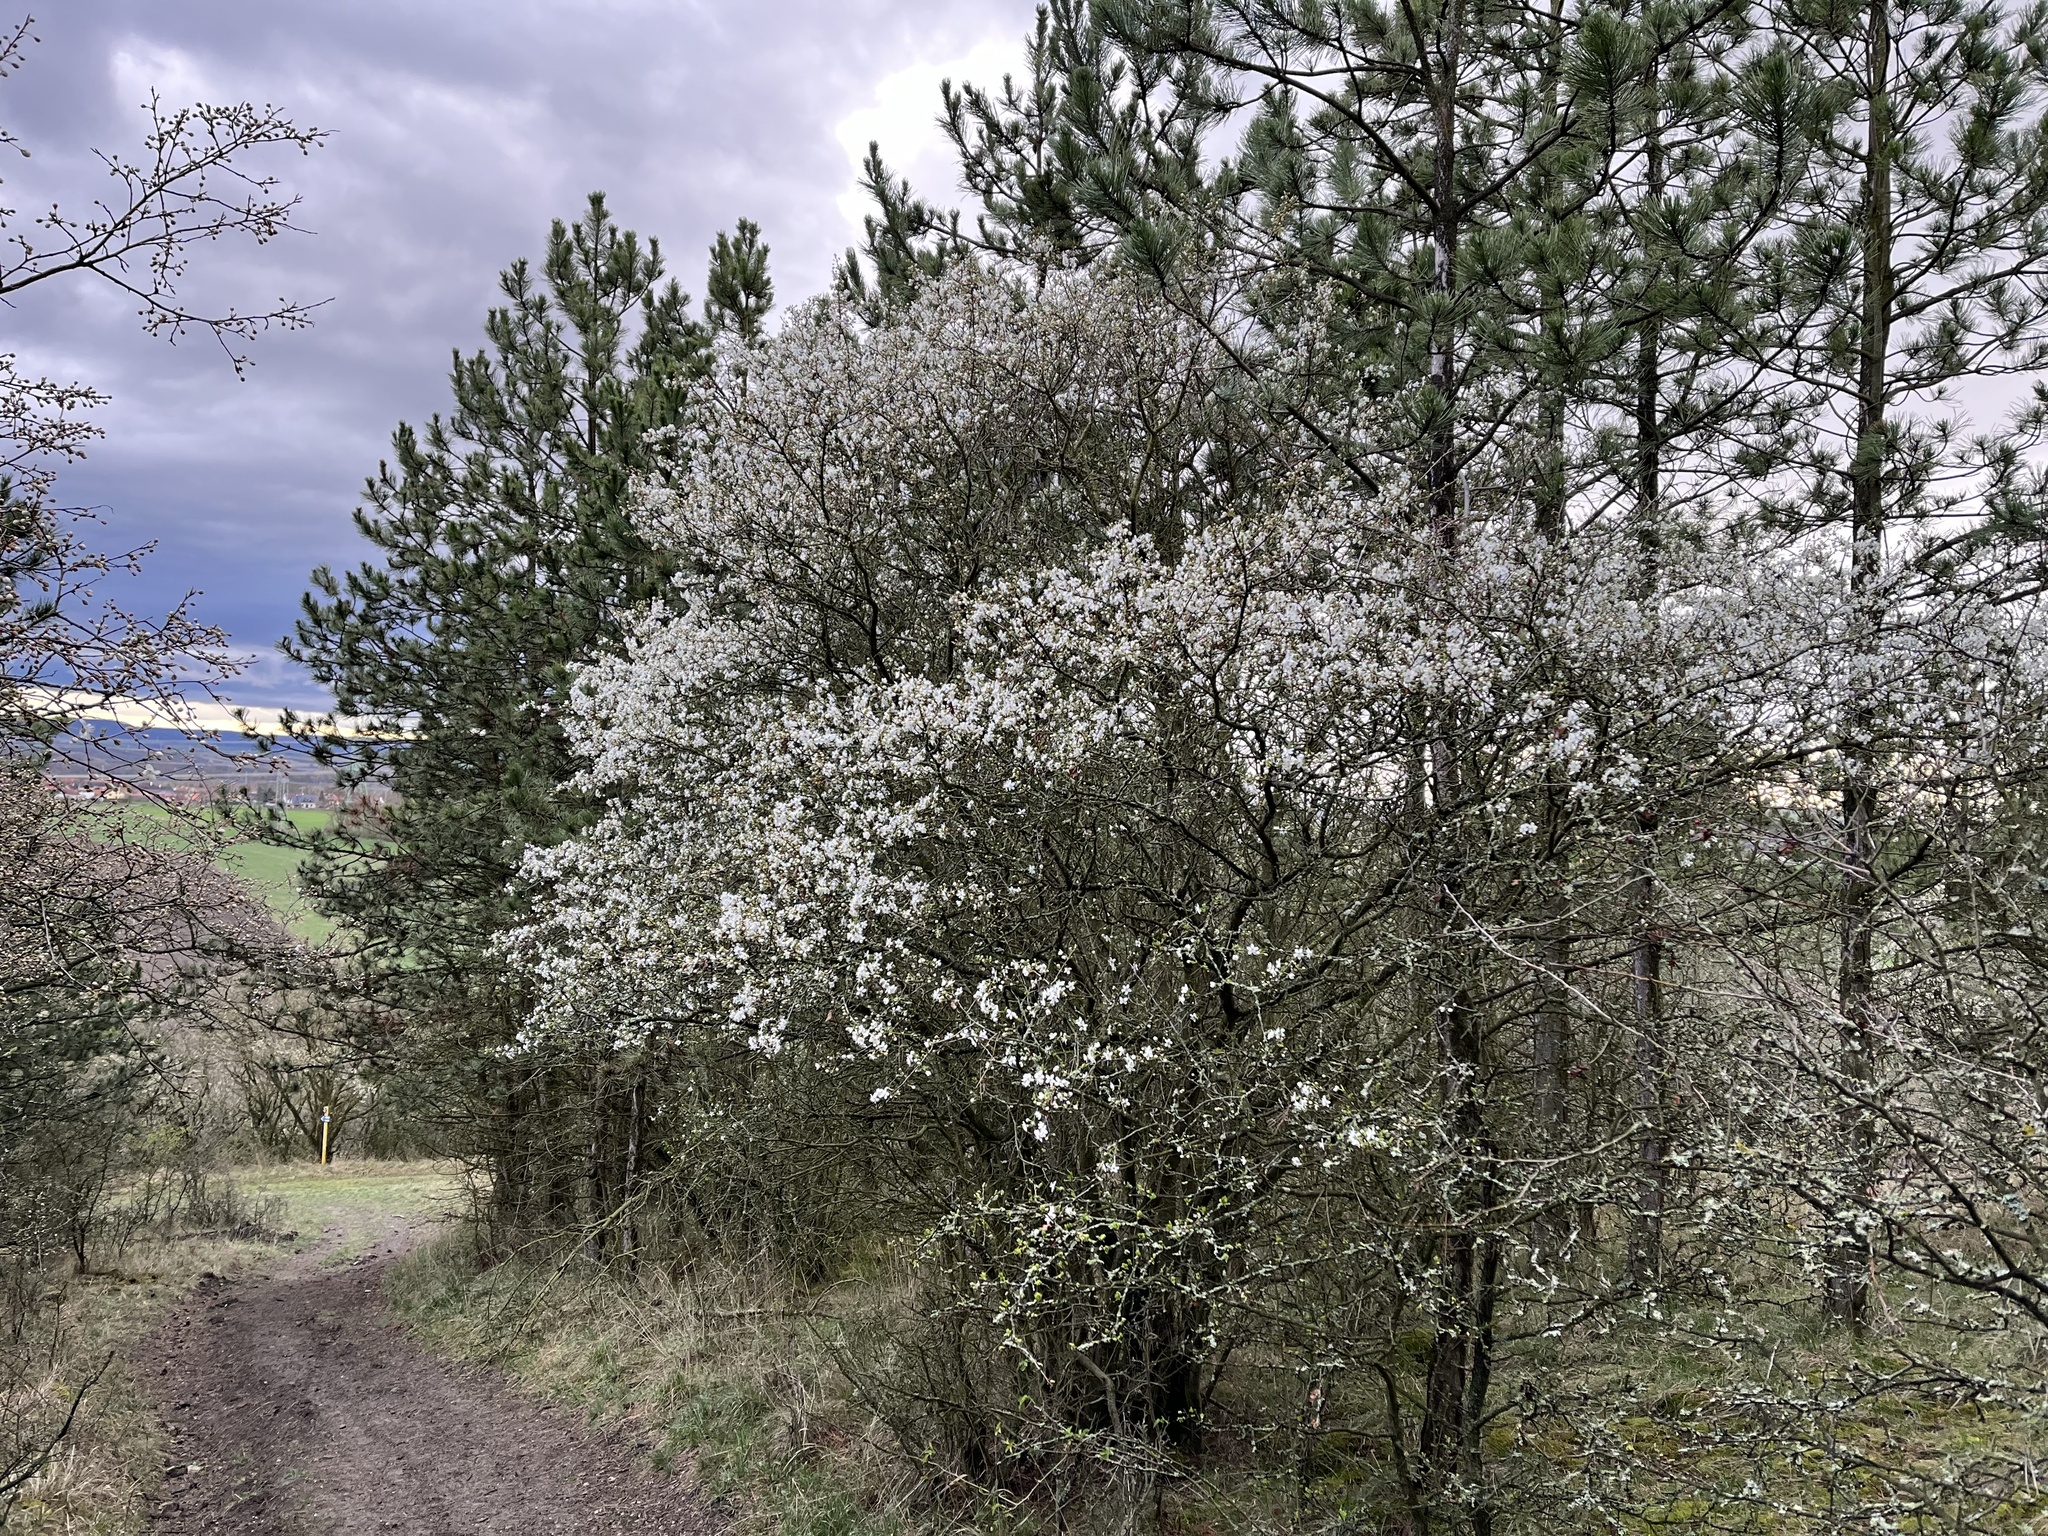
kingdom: Plantae
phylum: Tracheophyta
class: Magnoliopsida
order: Rosales
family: Rosaceae
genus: Prunus
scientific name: Prunus cerasifera
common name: Cherry plum
